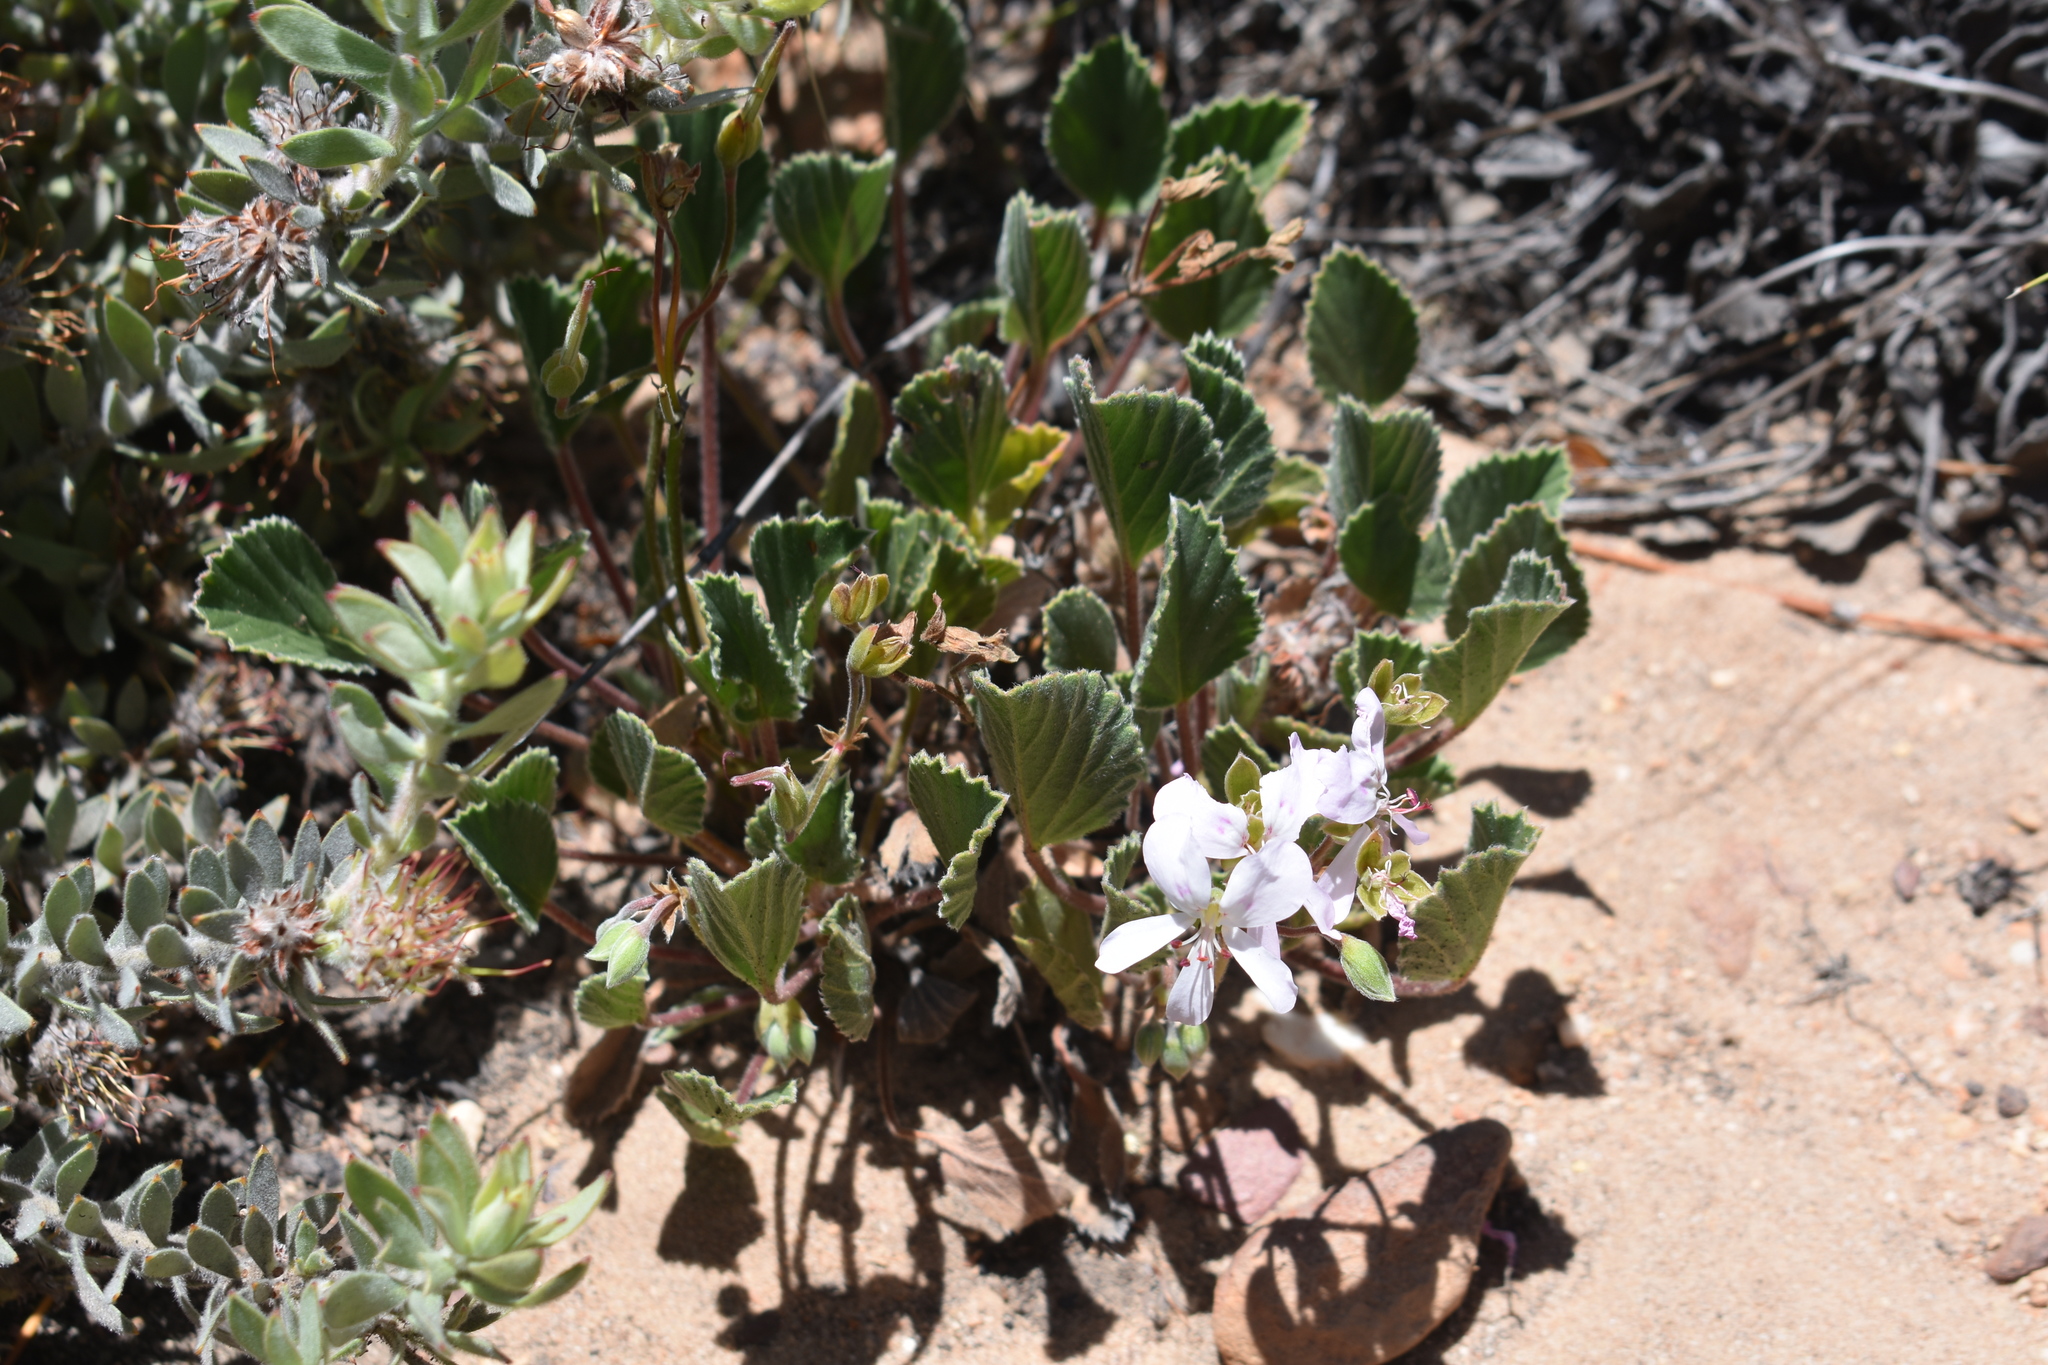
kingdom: Plantae
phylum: Tracheophyta
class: Magnoliopsida
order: Geraniales
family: Geraniaceae
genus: Pelargonium
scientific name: Pelargonium ovale
